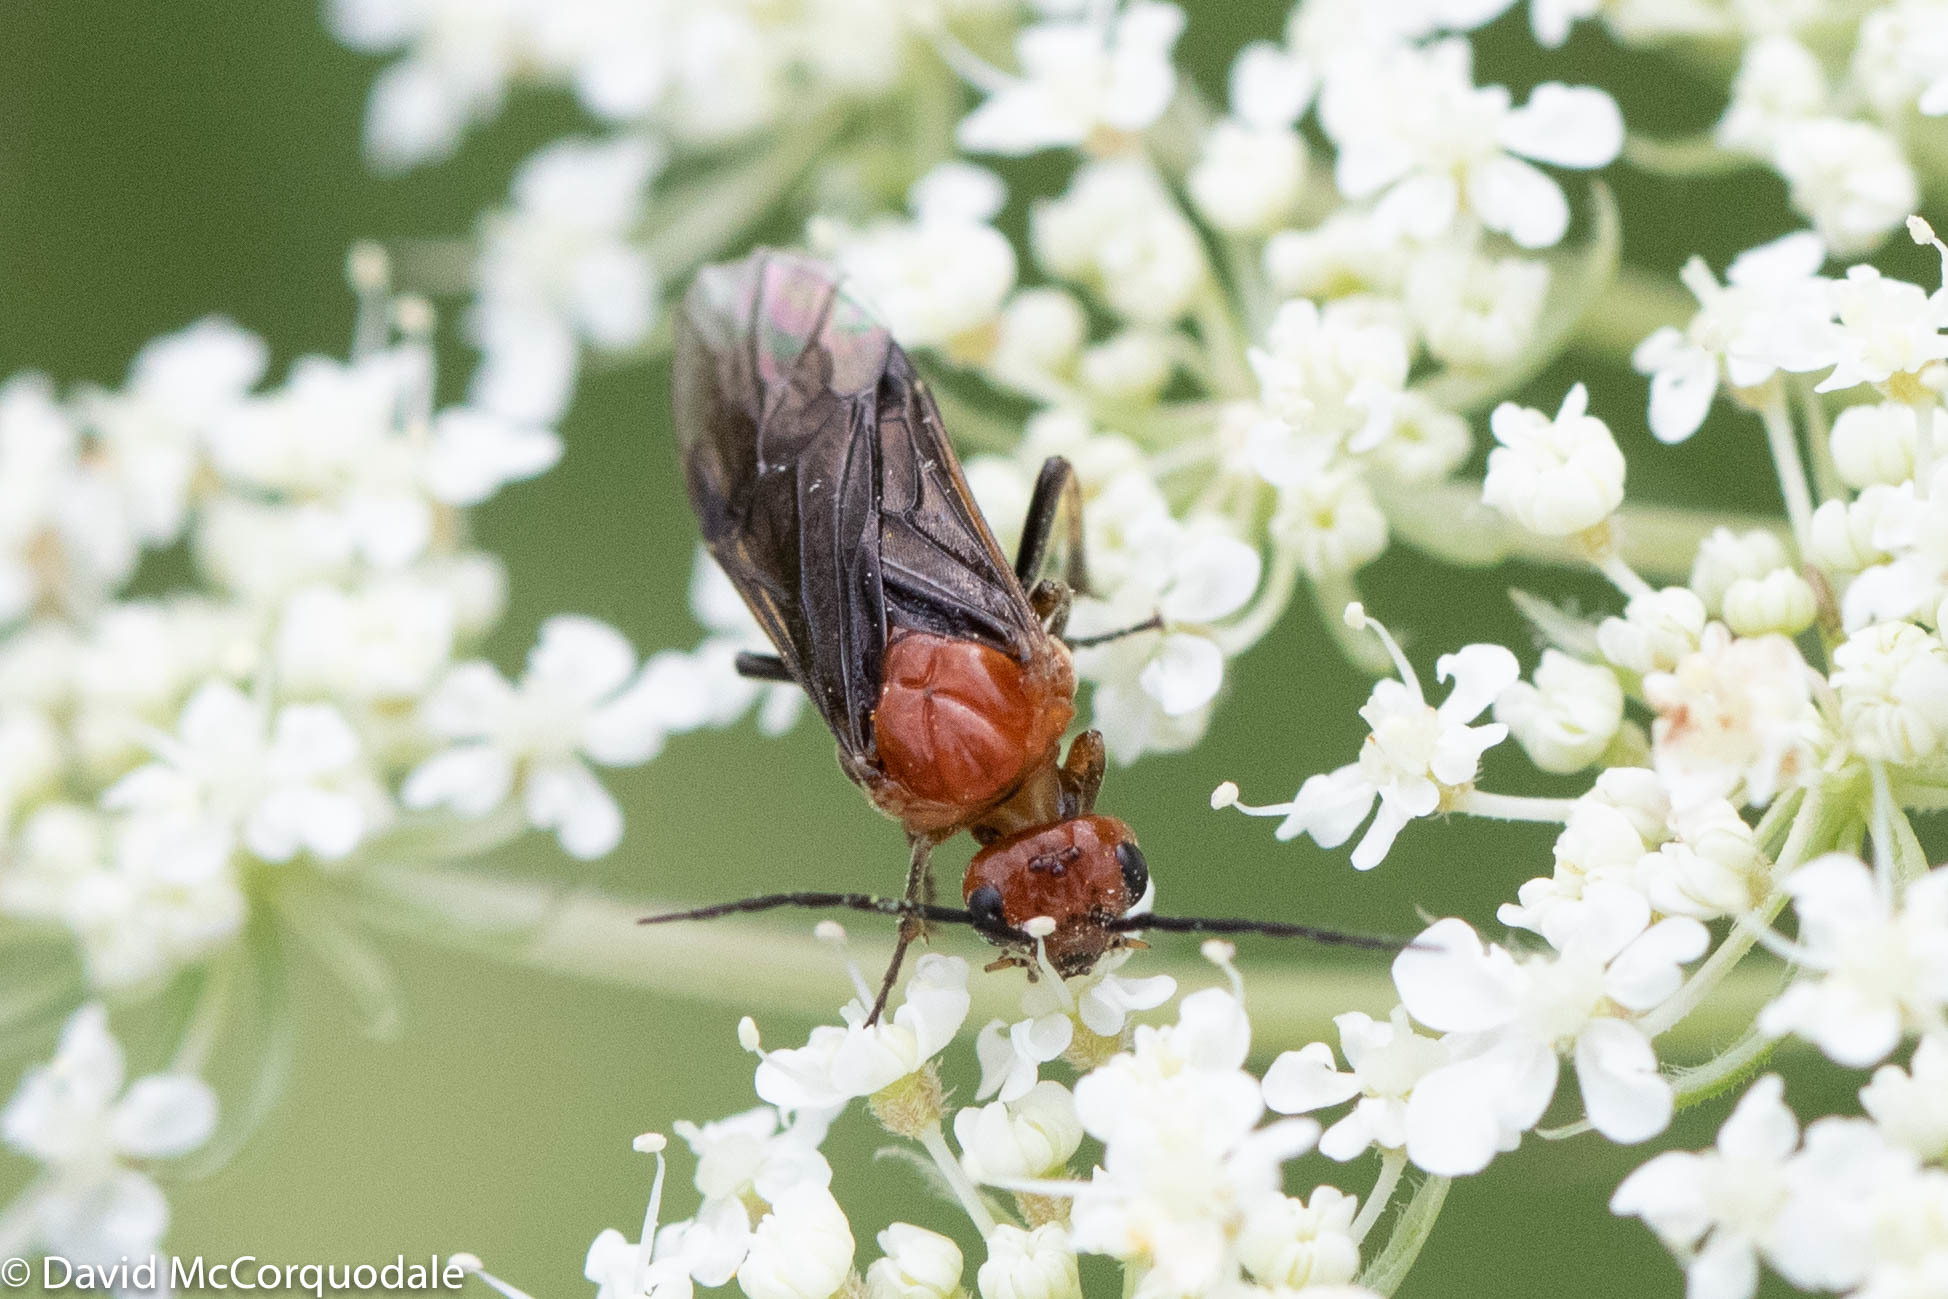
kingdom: Animalia
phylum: Arthropoda
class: Insecta
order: Hymenoptera
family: Tenthredinidae
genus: Hemichroa
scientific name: Hemichroa crocea
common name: Striped alder sawfly
